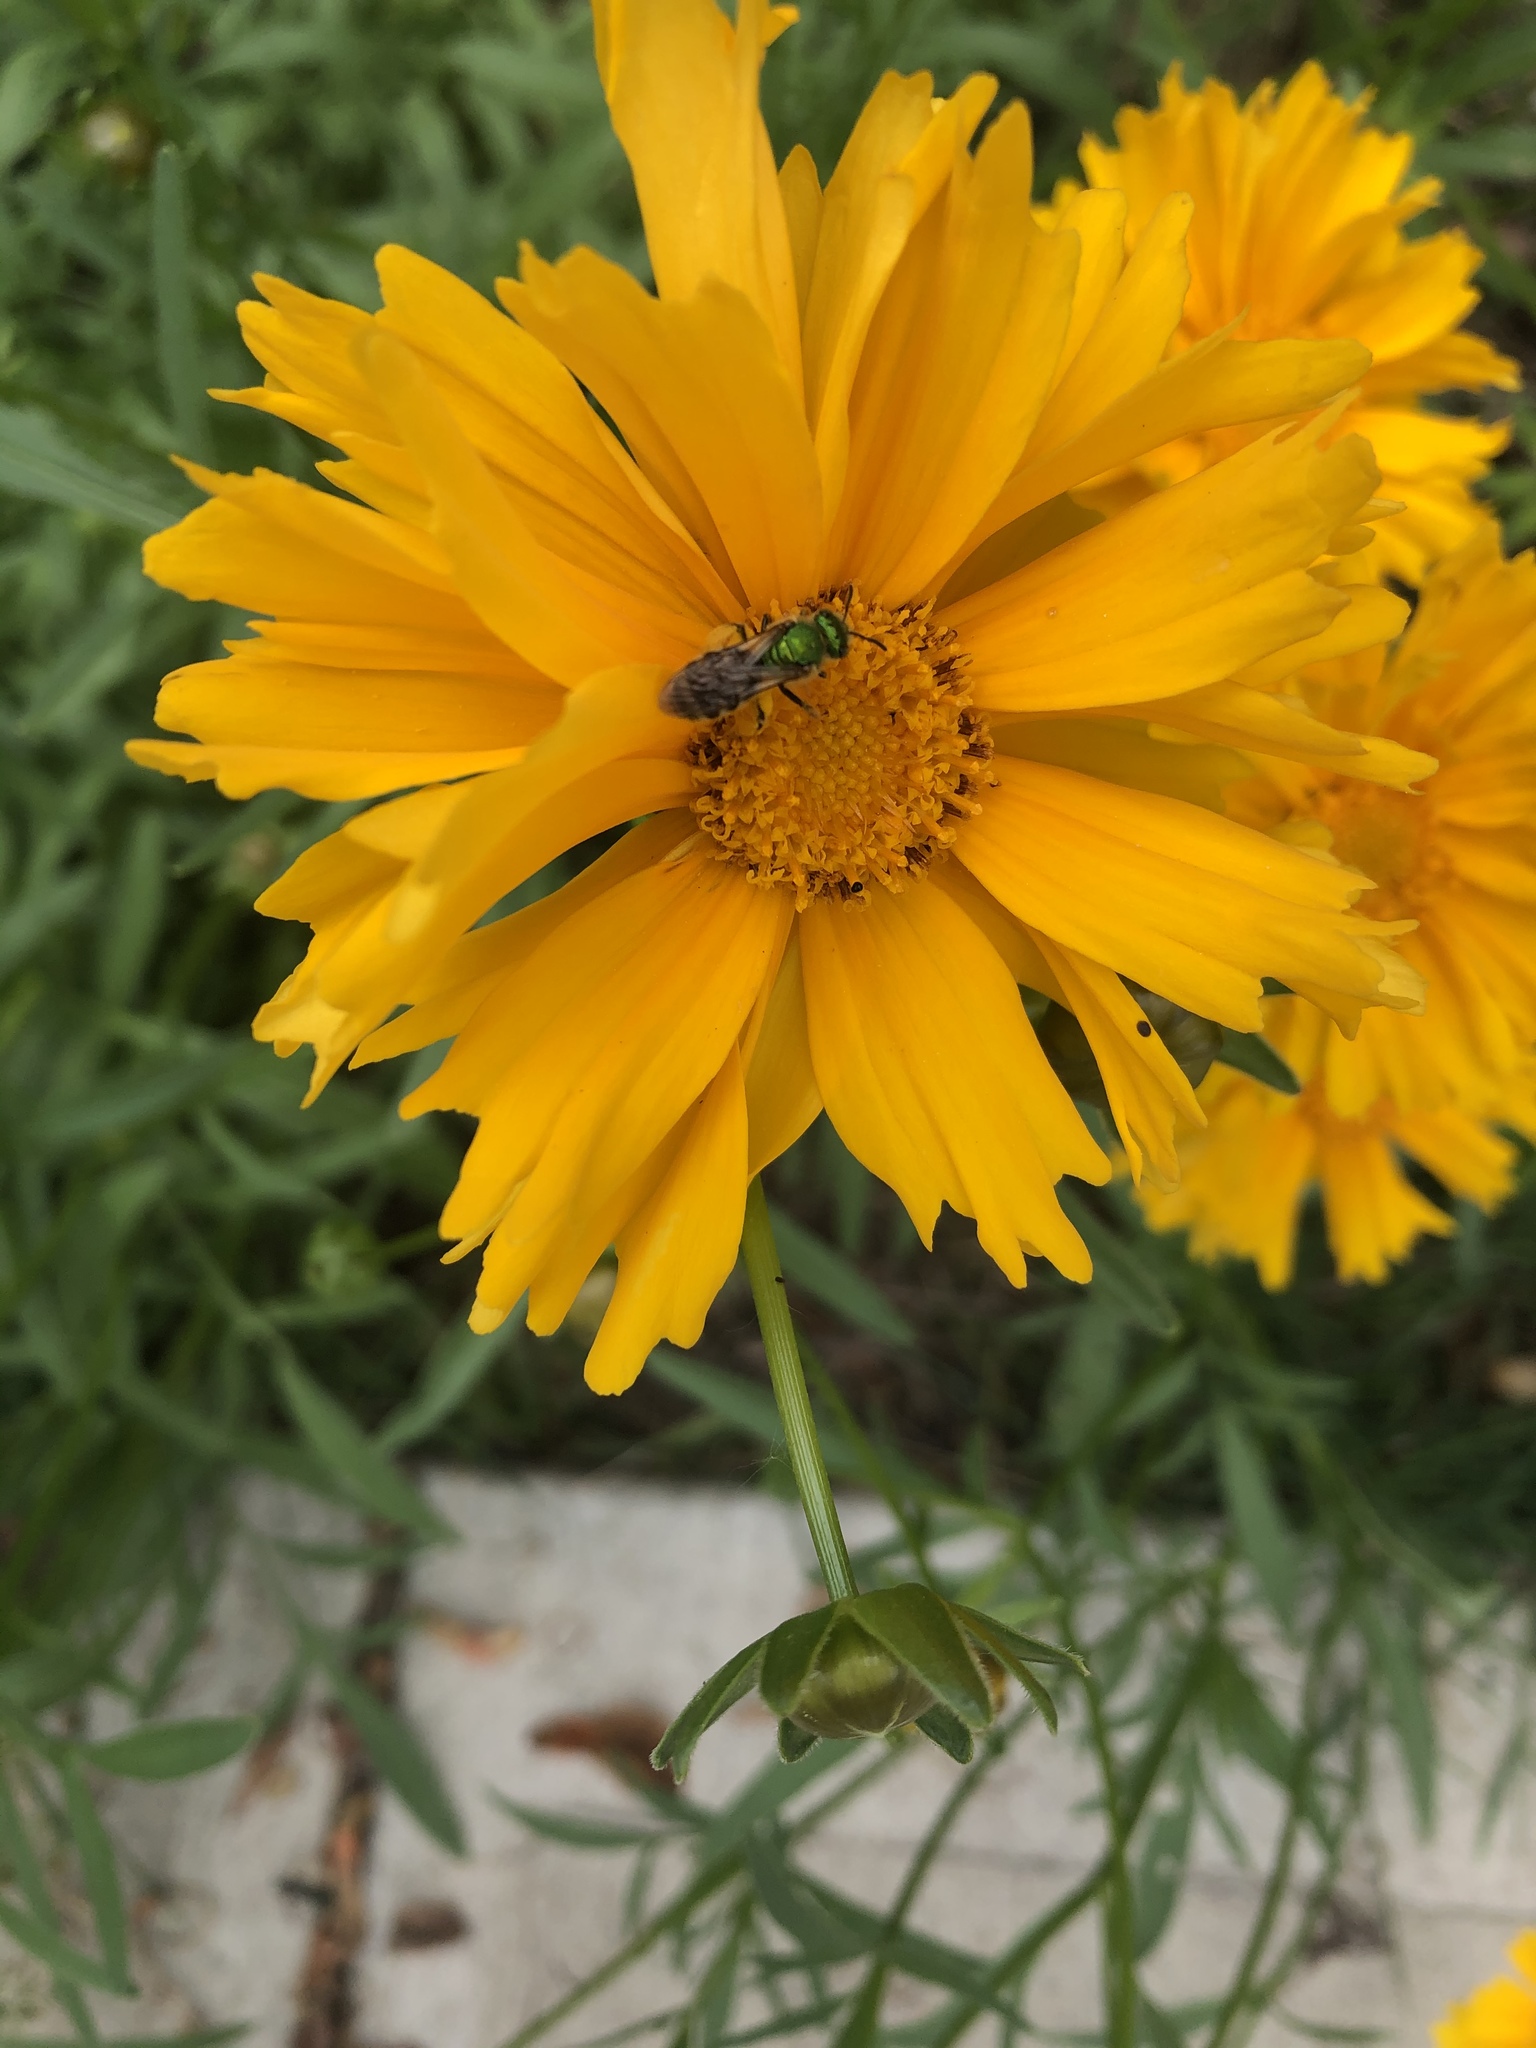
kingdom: Animalia
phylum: Arthropoda
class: Insecta
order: Hymenoptera
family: Halictidae
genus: Agapostemon
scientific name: Agapostemon virescens
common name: Bicolored striped sweat bee
